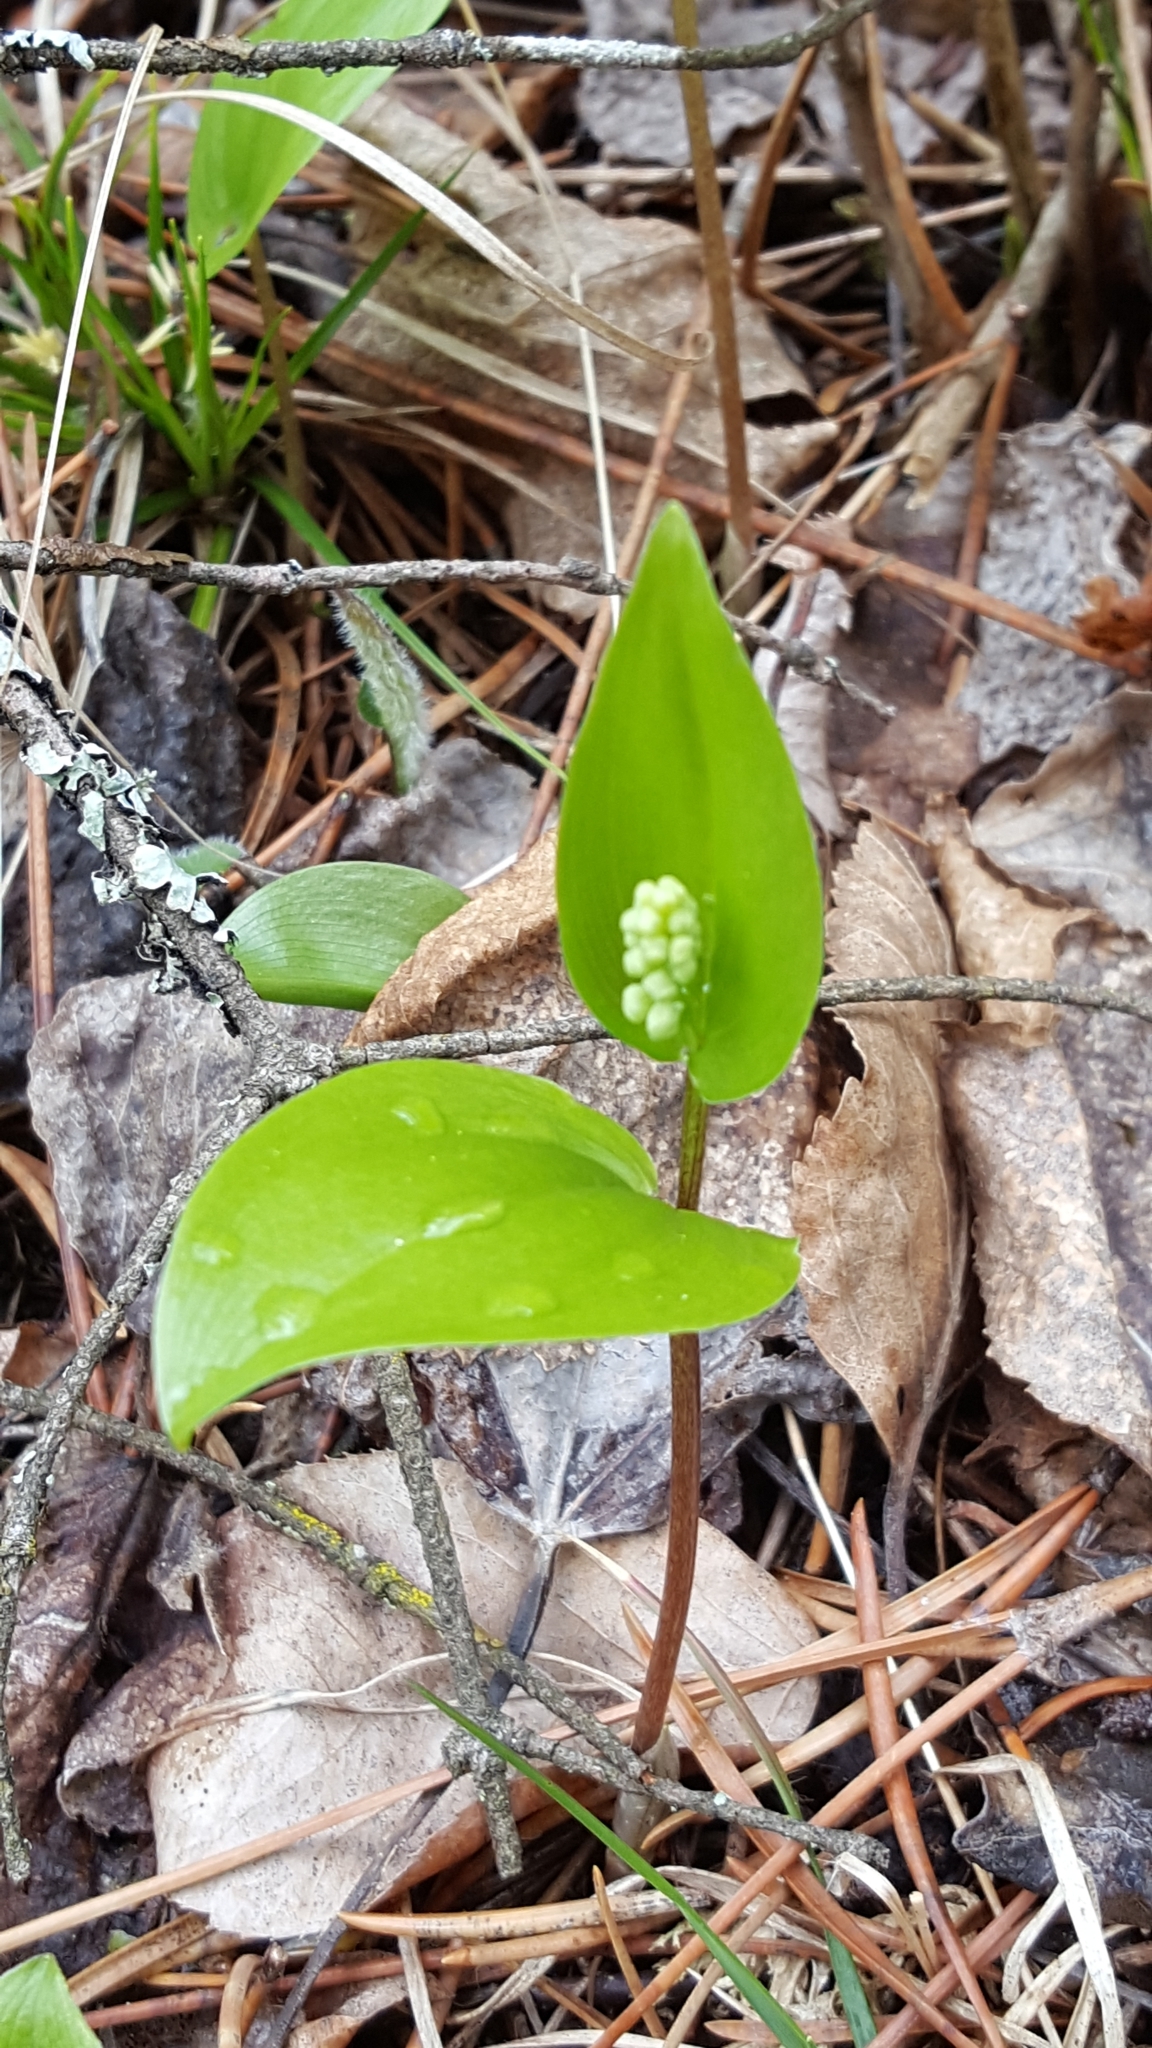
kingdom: Plantae
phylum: Tracheophyta
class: Liliopsida
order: Asparagales
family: Asparagaceae
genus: Maianthemum
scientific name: Maianthemum canadense
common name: False lily-of-the-valley
